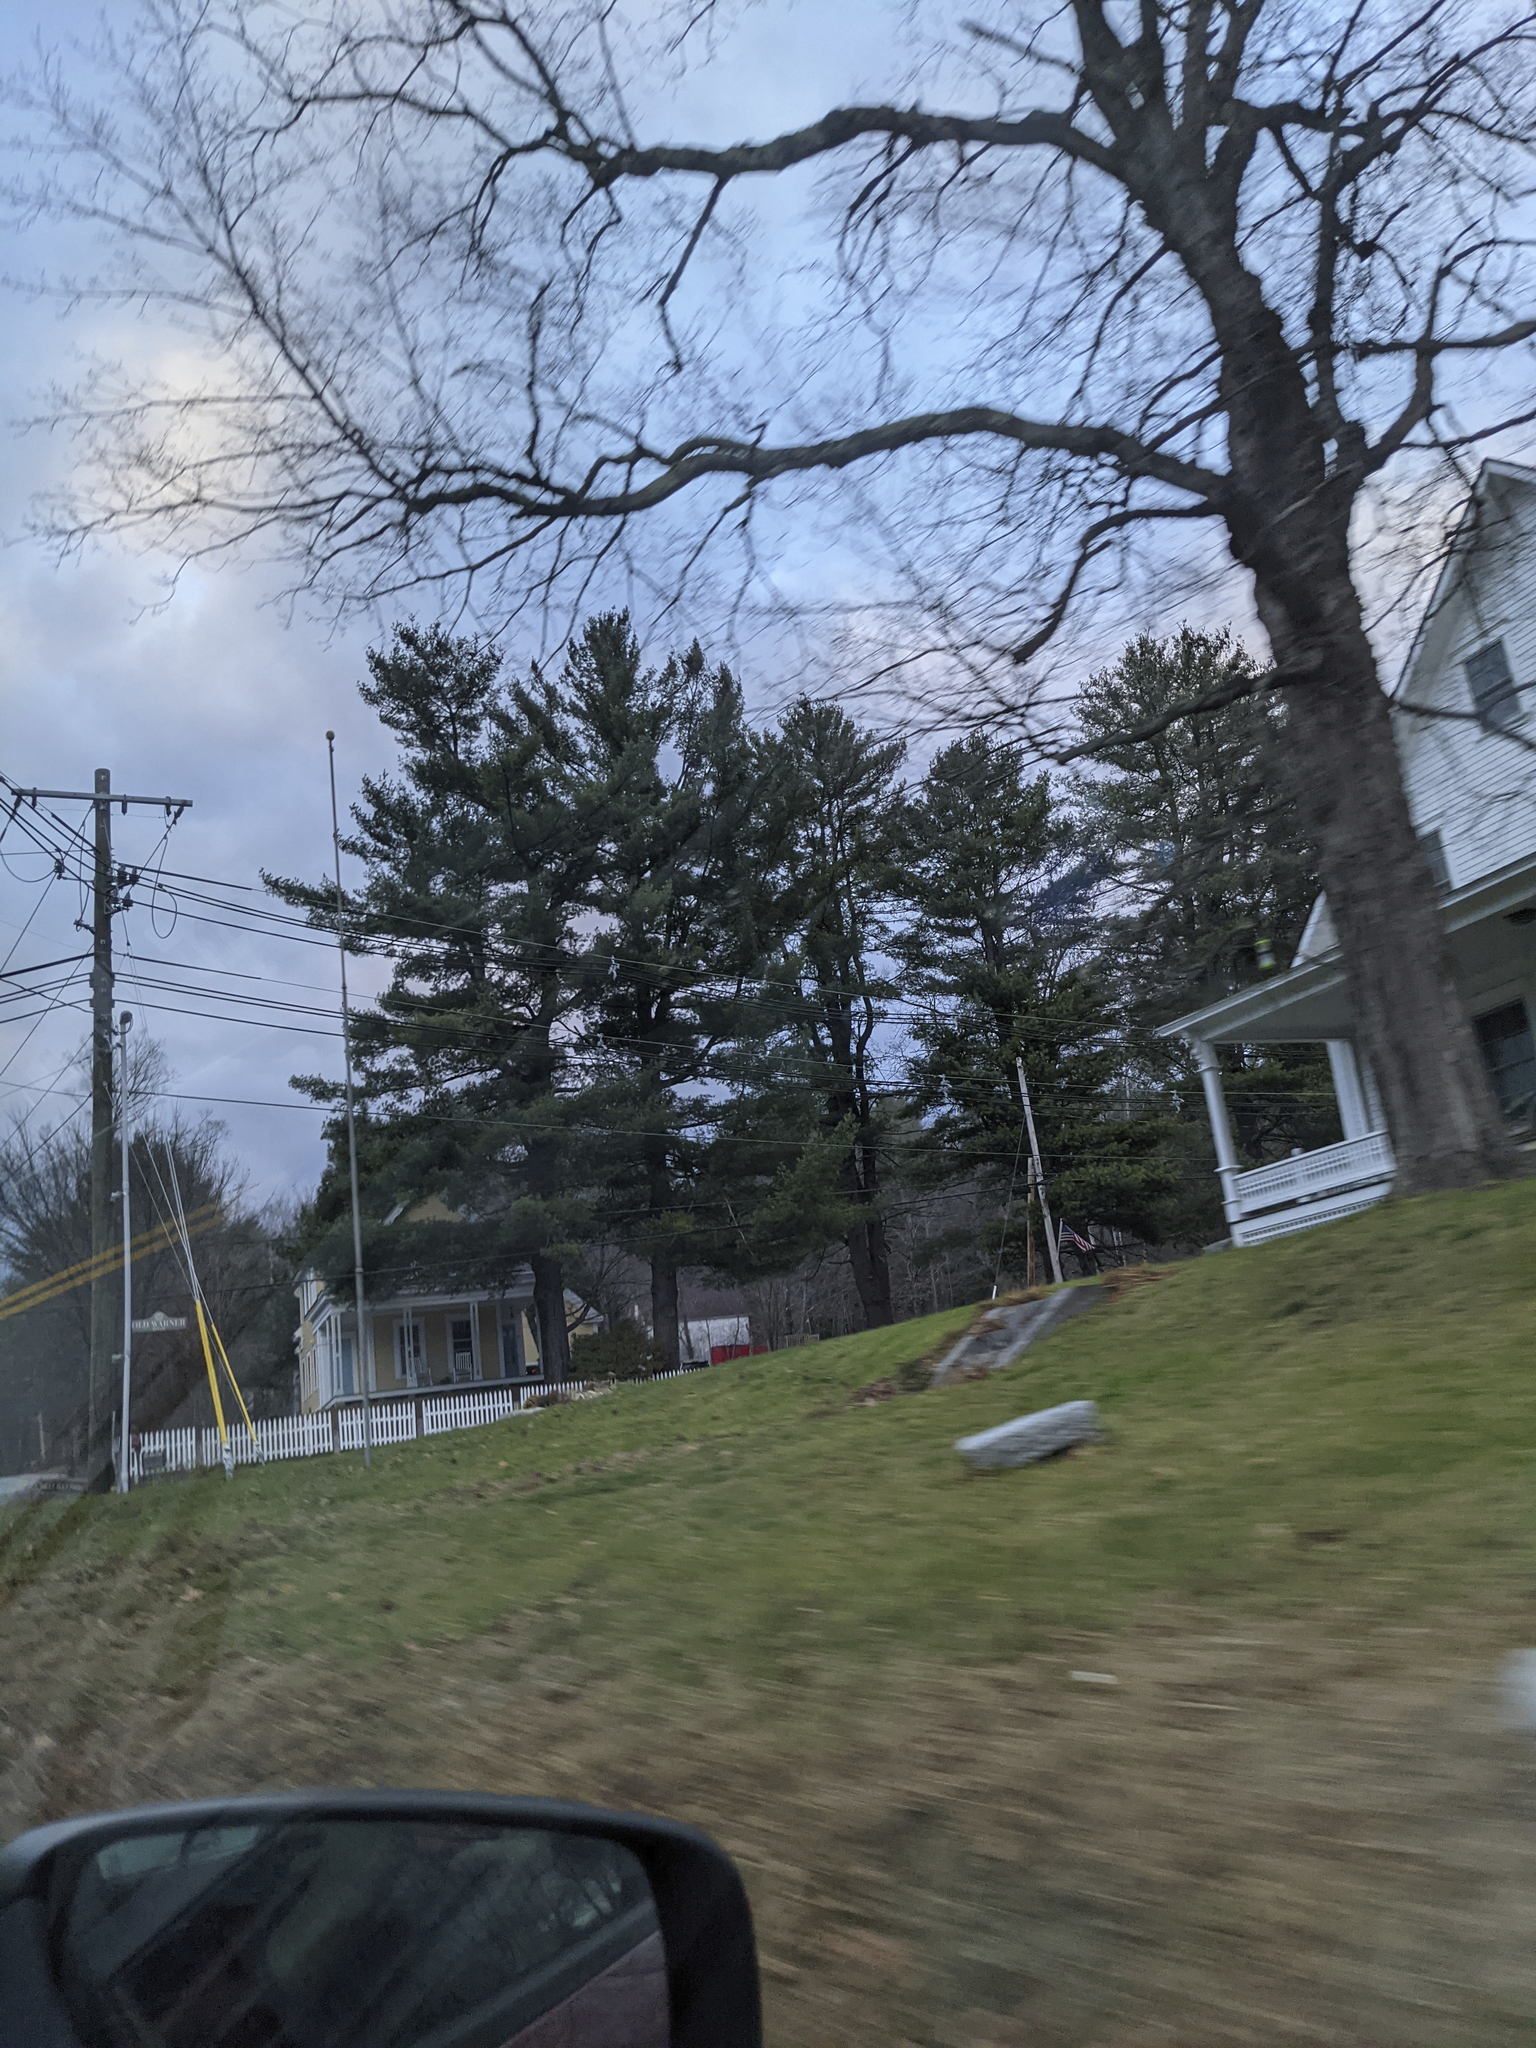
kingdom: Plantae
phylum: Tracheophyta
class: Pinopsida
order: Pinales
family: Pinaceae
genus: Pinus
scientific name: Pinus strobus
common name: Weymouth pine
